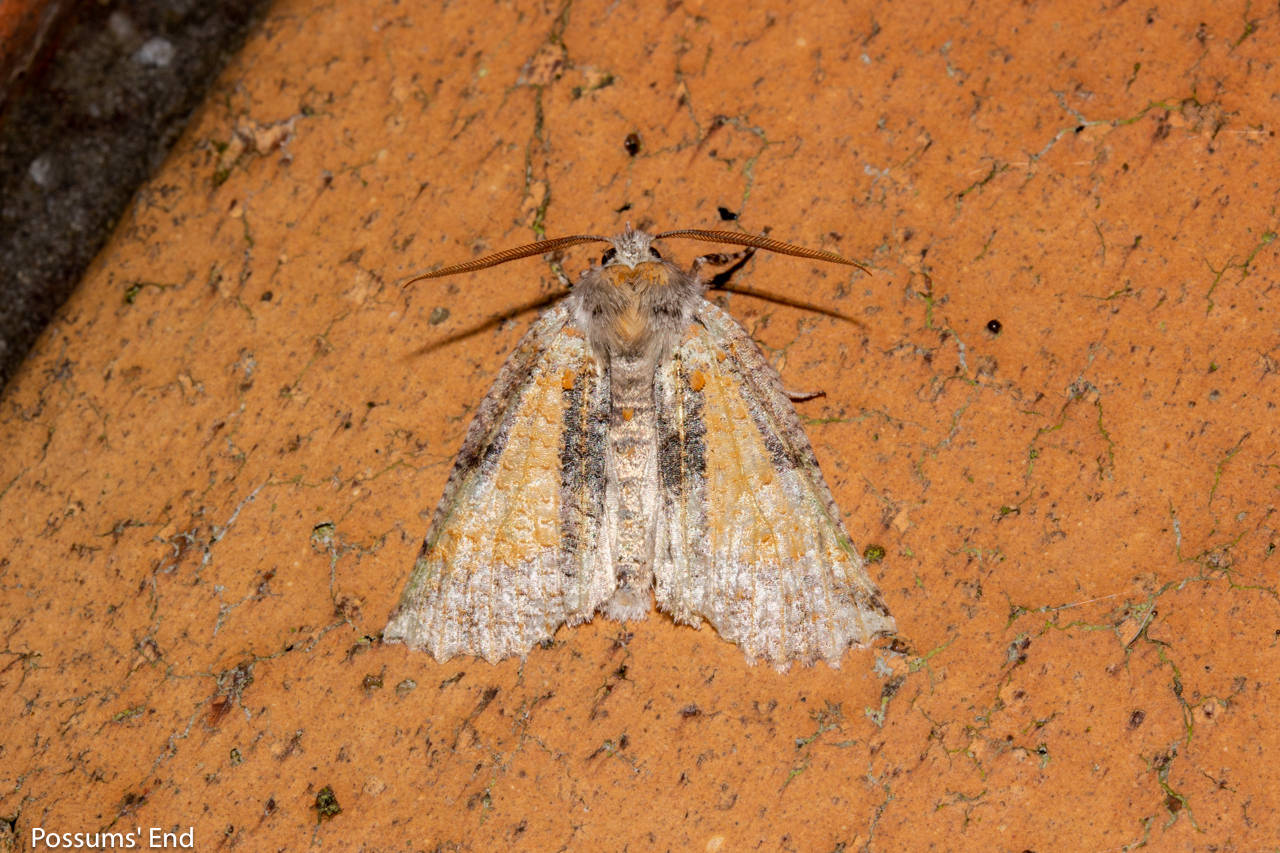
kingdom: Animalia
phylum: Arthropoda
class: Insecta
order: Lepidoptera
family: Geometridae
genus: Declana
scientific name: Declana floccosa
